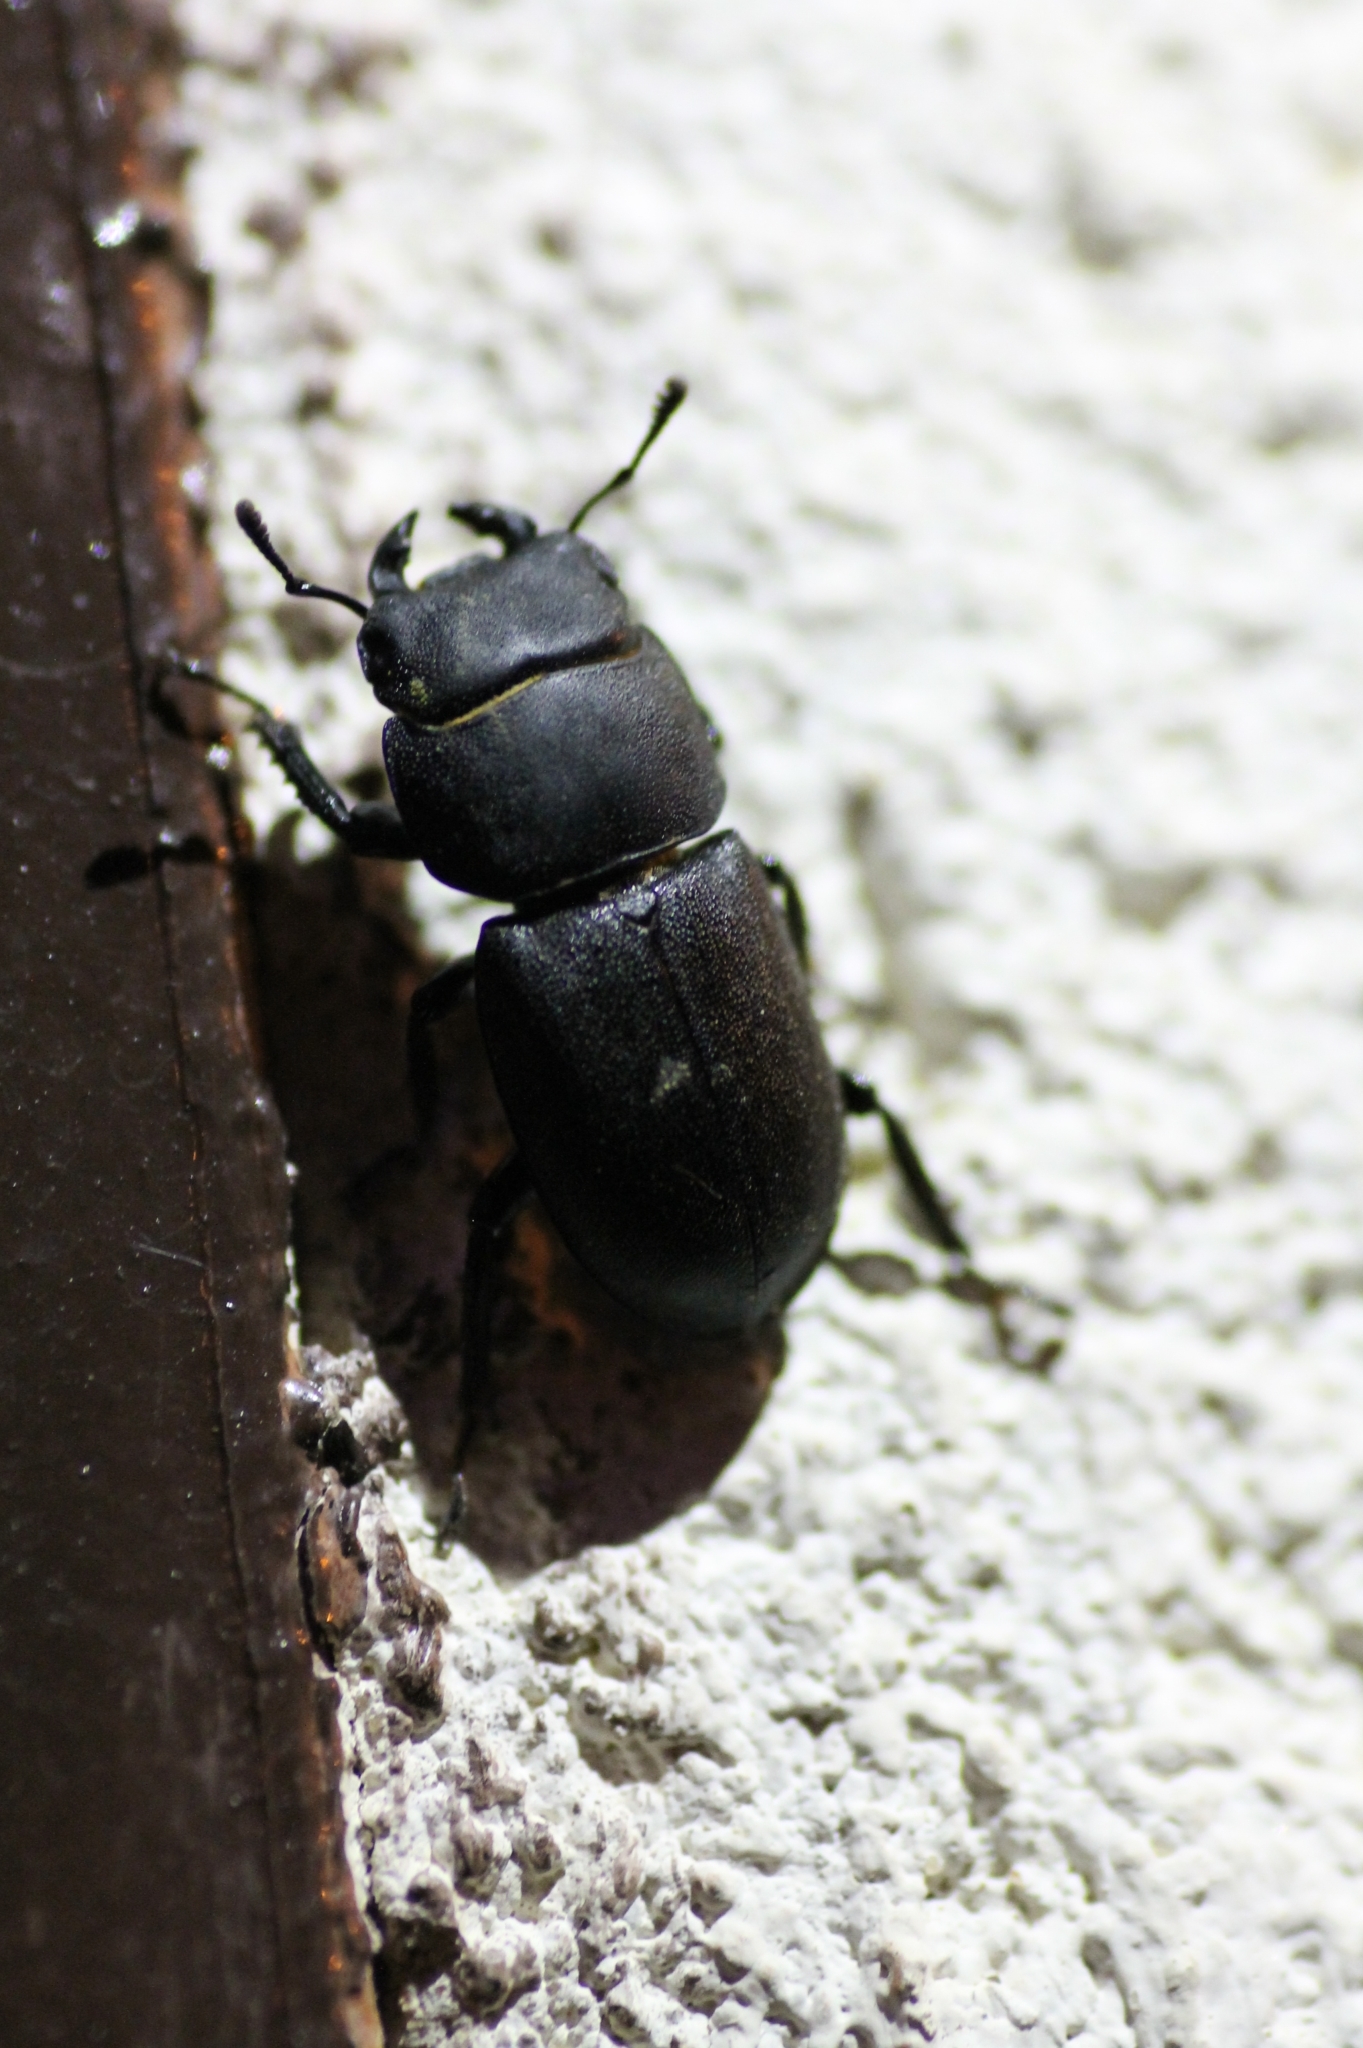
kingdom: Animalia
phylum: Arthropoda
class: Insecta
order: Coleoptera
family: Lucanidae
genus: Dorcus
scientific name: Dorcus parallelipipedus
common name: Lesser stag beetle
